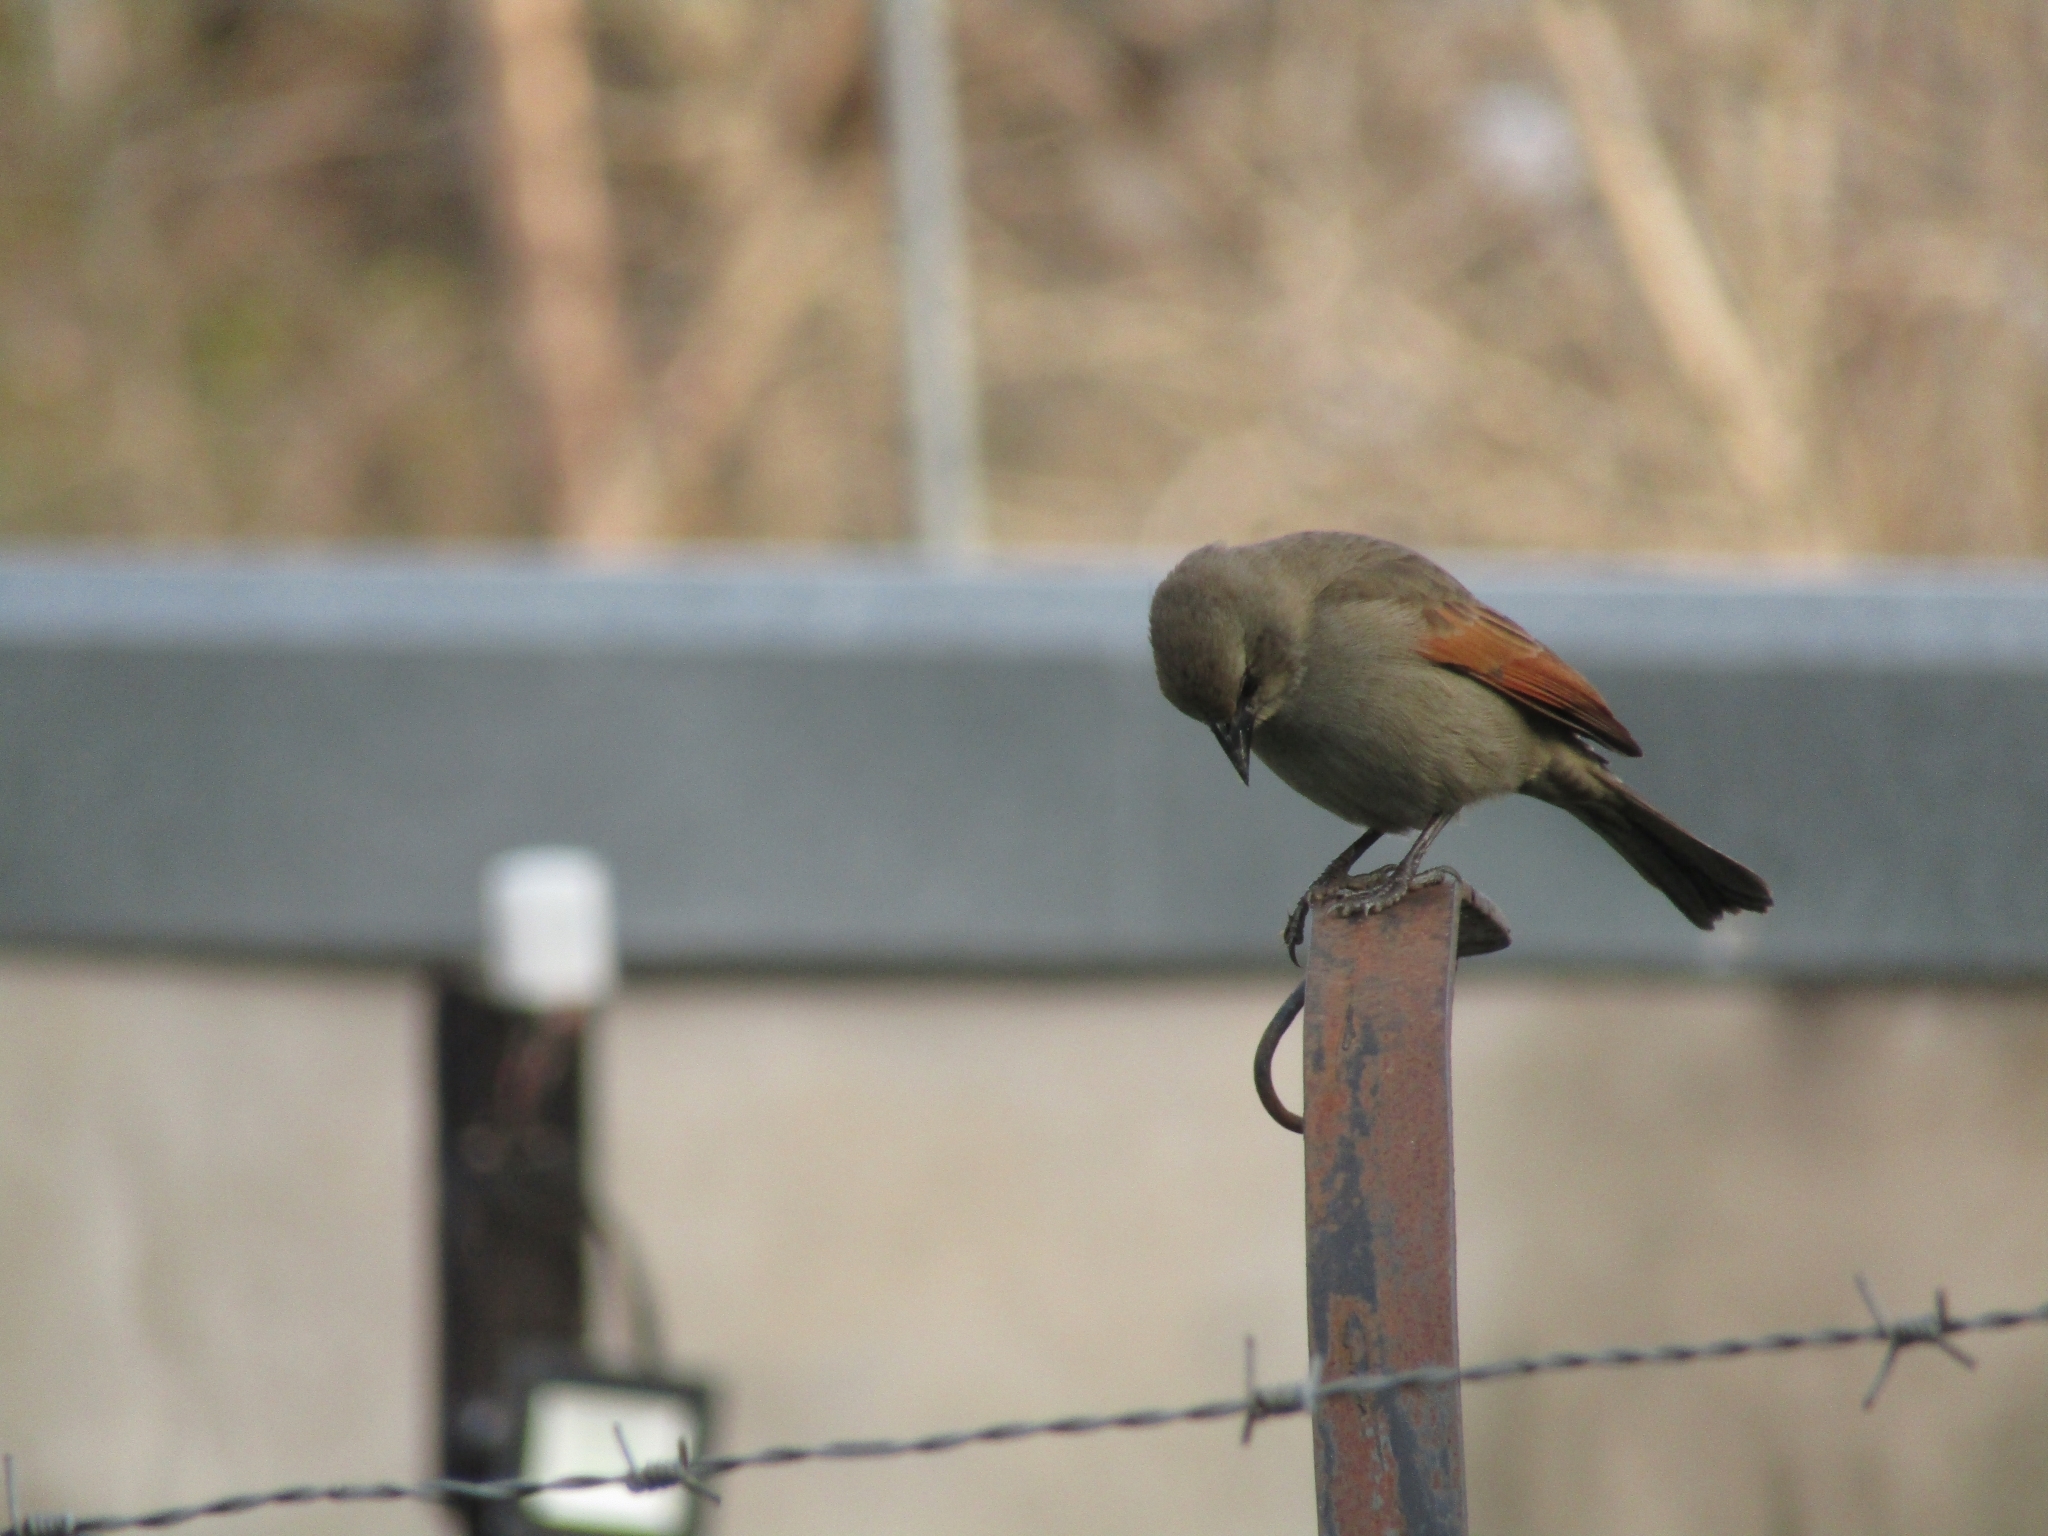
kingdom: Animalia
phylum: Chordata
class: Aves
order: Passeriformes
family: Icteridae
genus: Agelaioides
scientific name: Agelaioides badius
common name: Baywing
